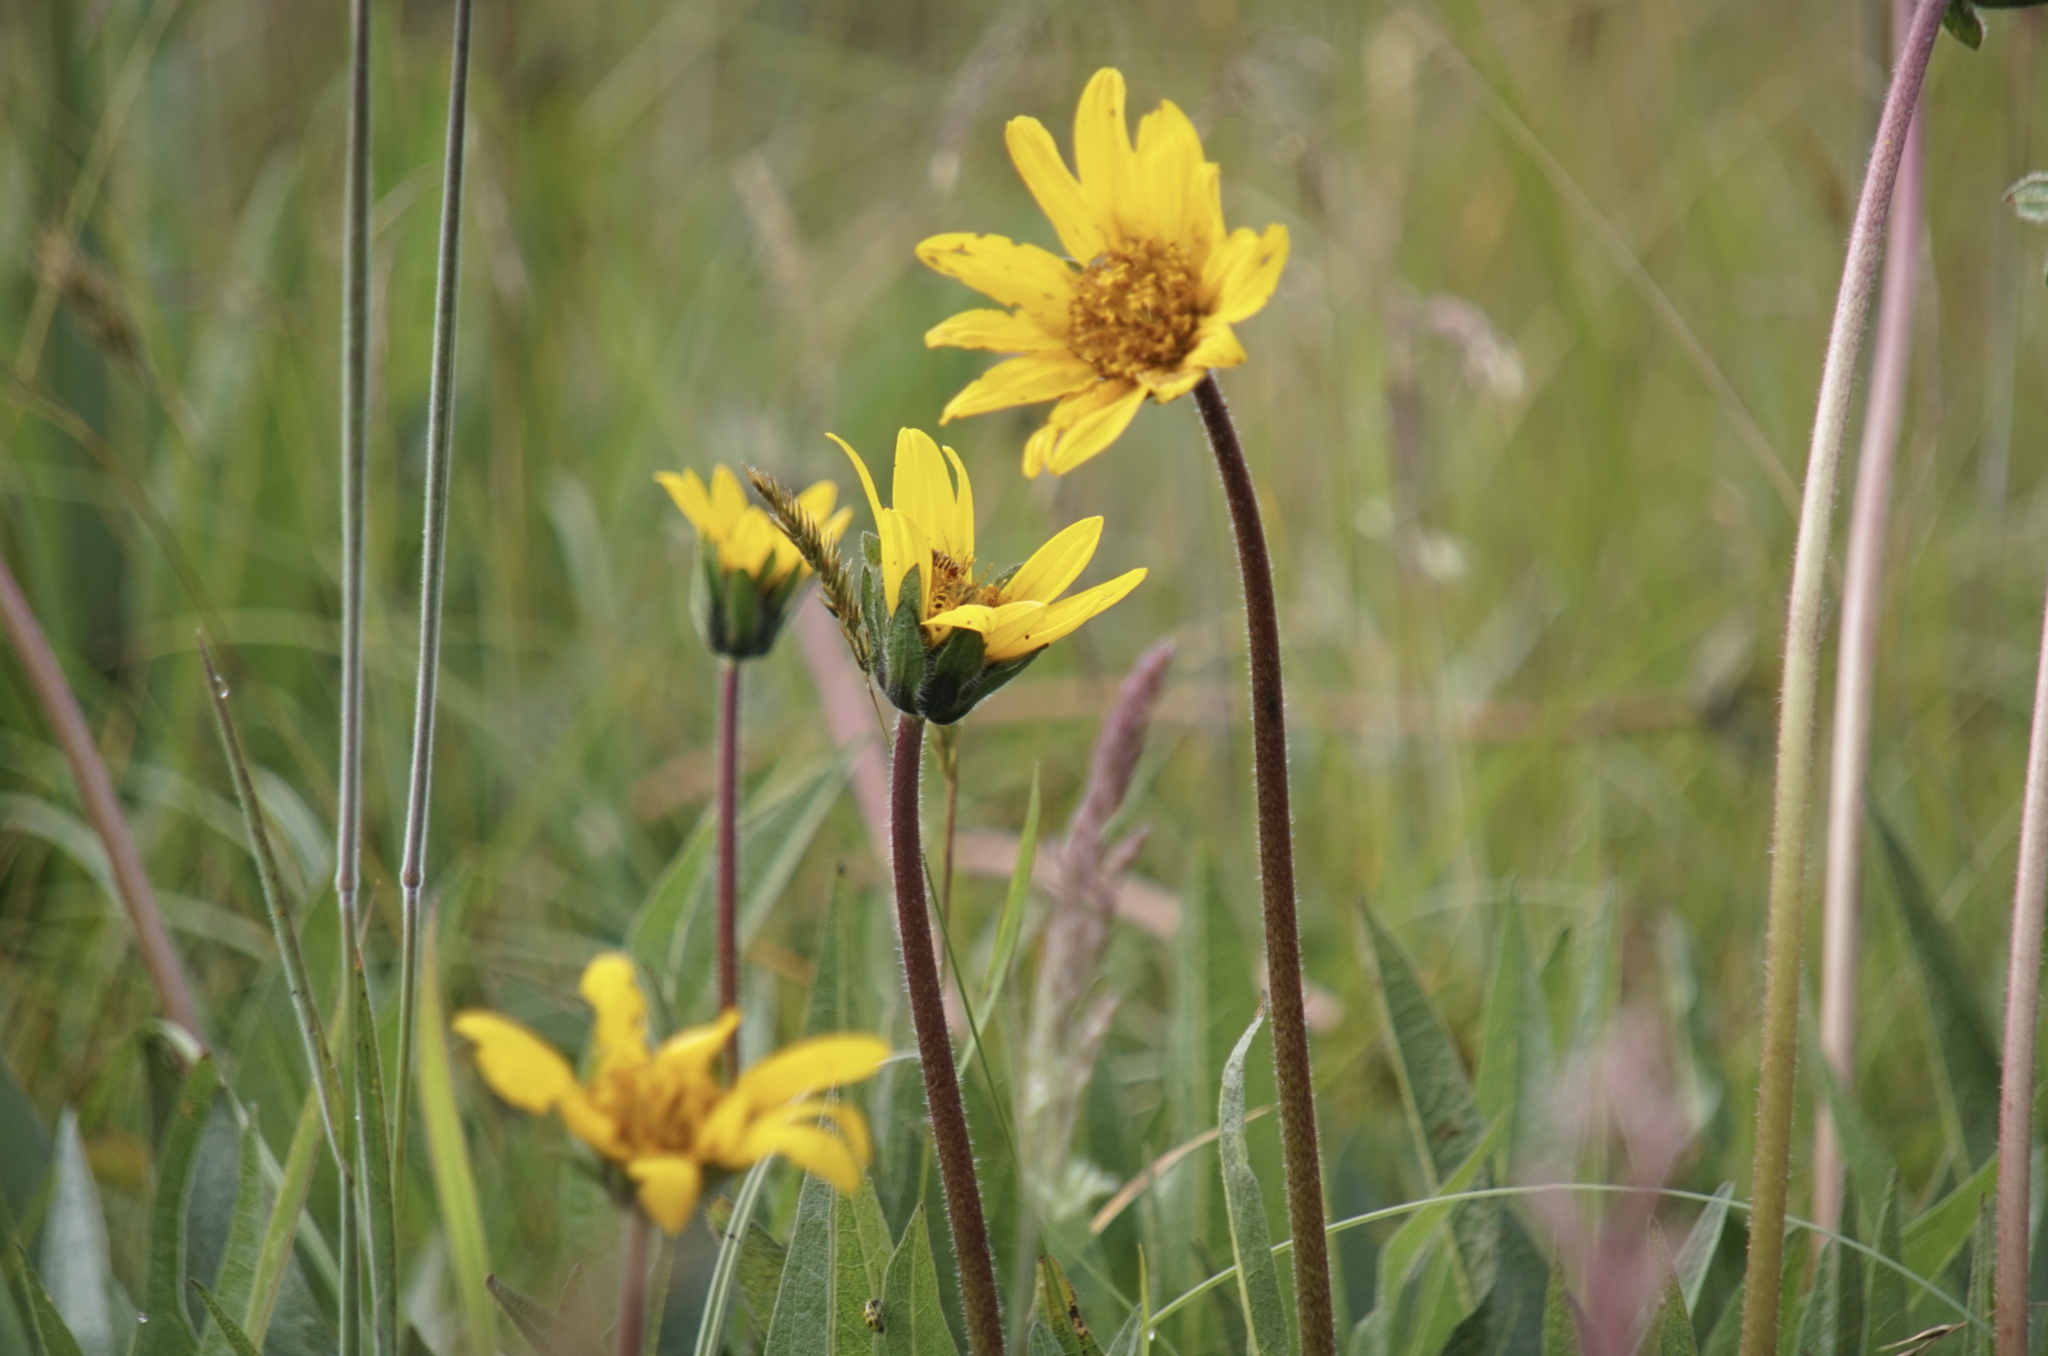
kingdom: Plantae
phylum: Tracheophyta
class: Magnoliopsida
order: Asterales
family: Asteraceae
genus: Wyethia
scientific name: Wyethia angustifolia
